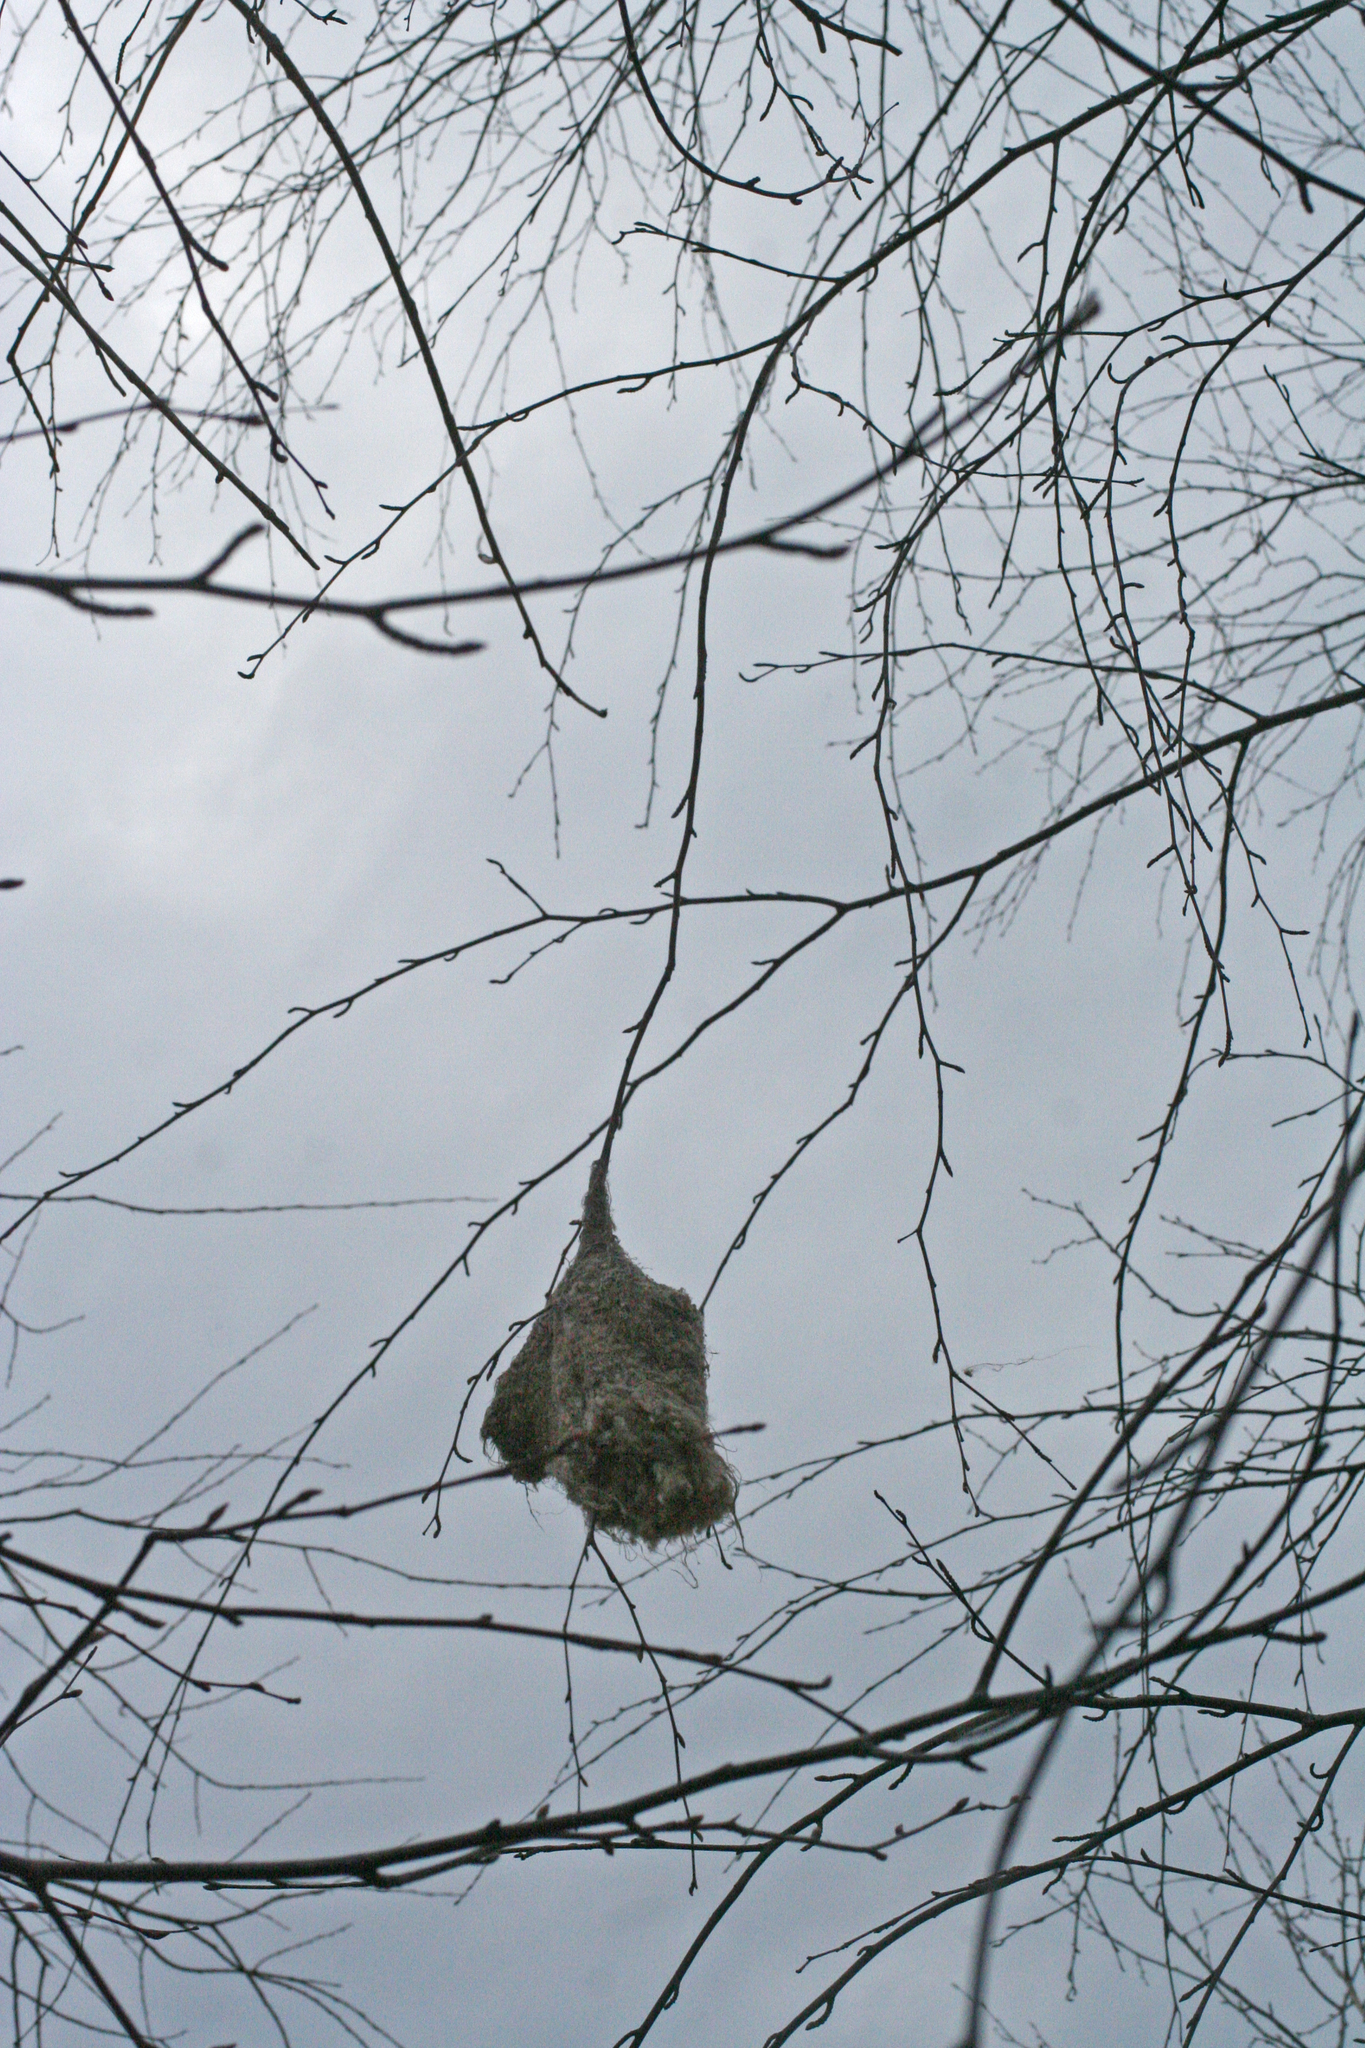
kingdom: Animalia
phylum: Chordata
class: Aves
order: Passeriformes
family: Remizidae
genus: Remiz
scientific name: Remiz pendulinus
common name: Eurasian penduline tit
